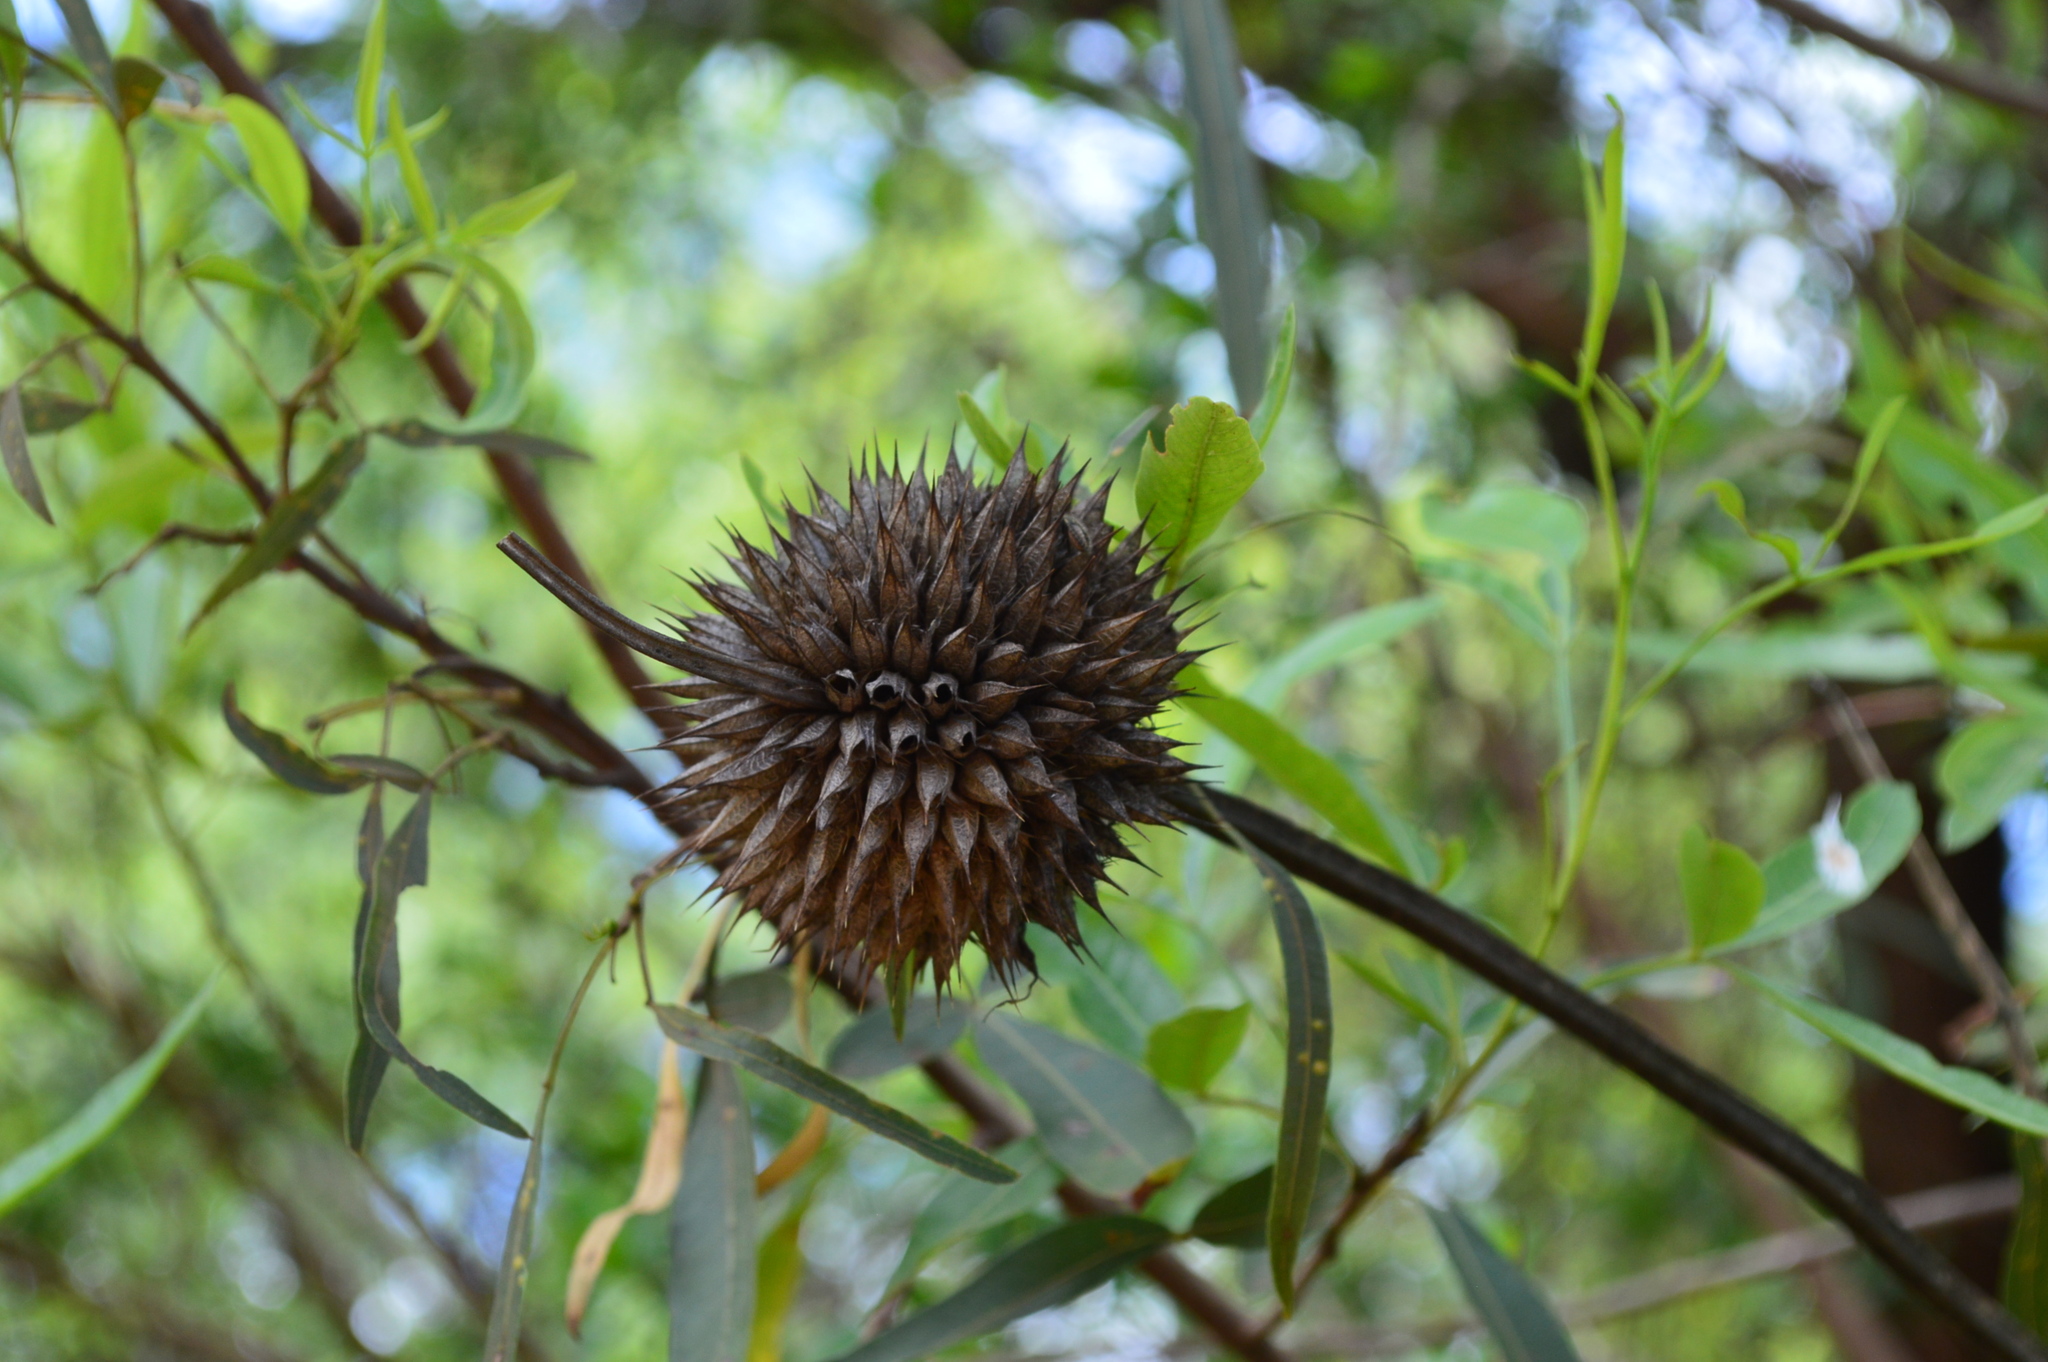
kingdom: Plantae
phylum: Tracheophyta
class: Magnoliopsida
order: Lamiales
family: Lamiaceae
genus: Leonotis
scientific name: Leonotis nepetifolia
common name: Christmas candlestick
